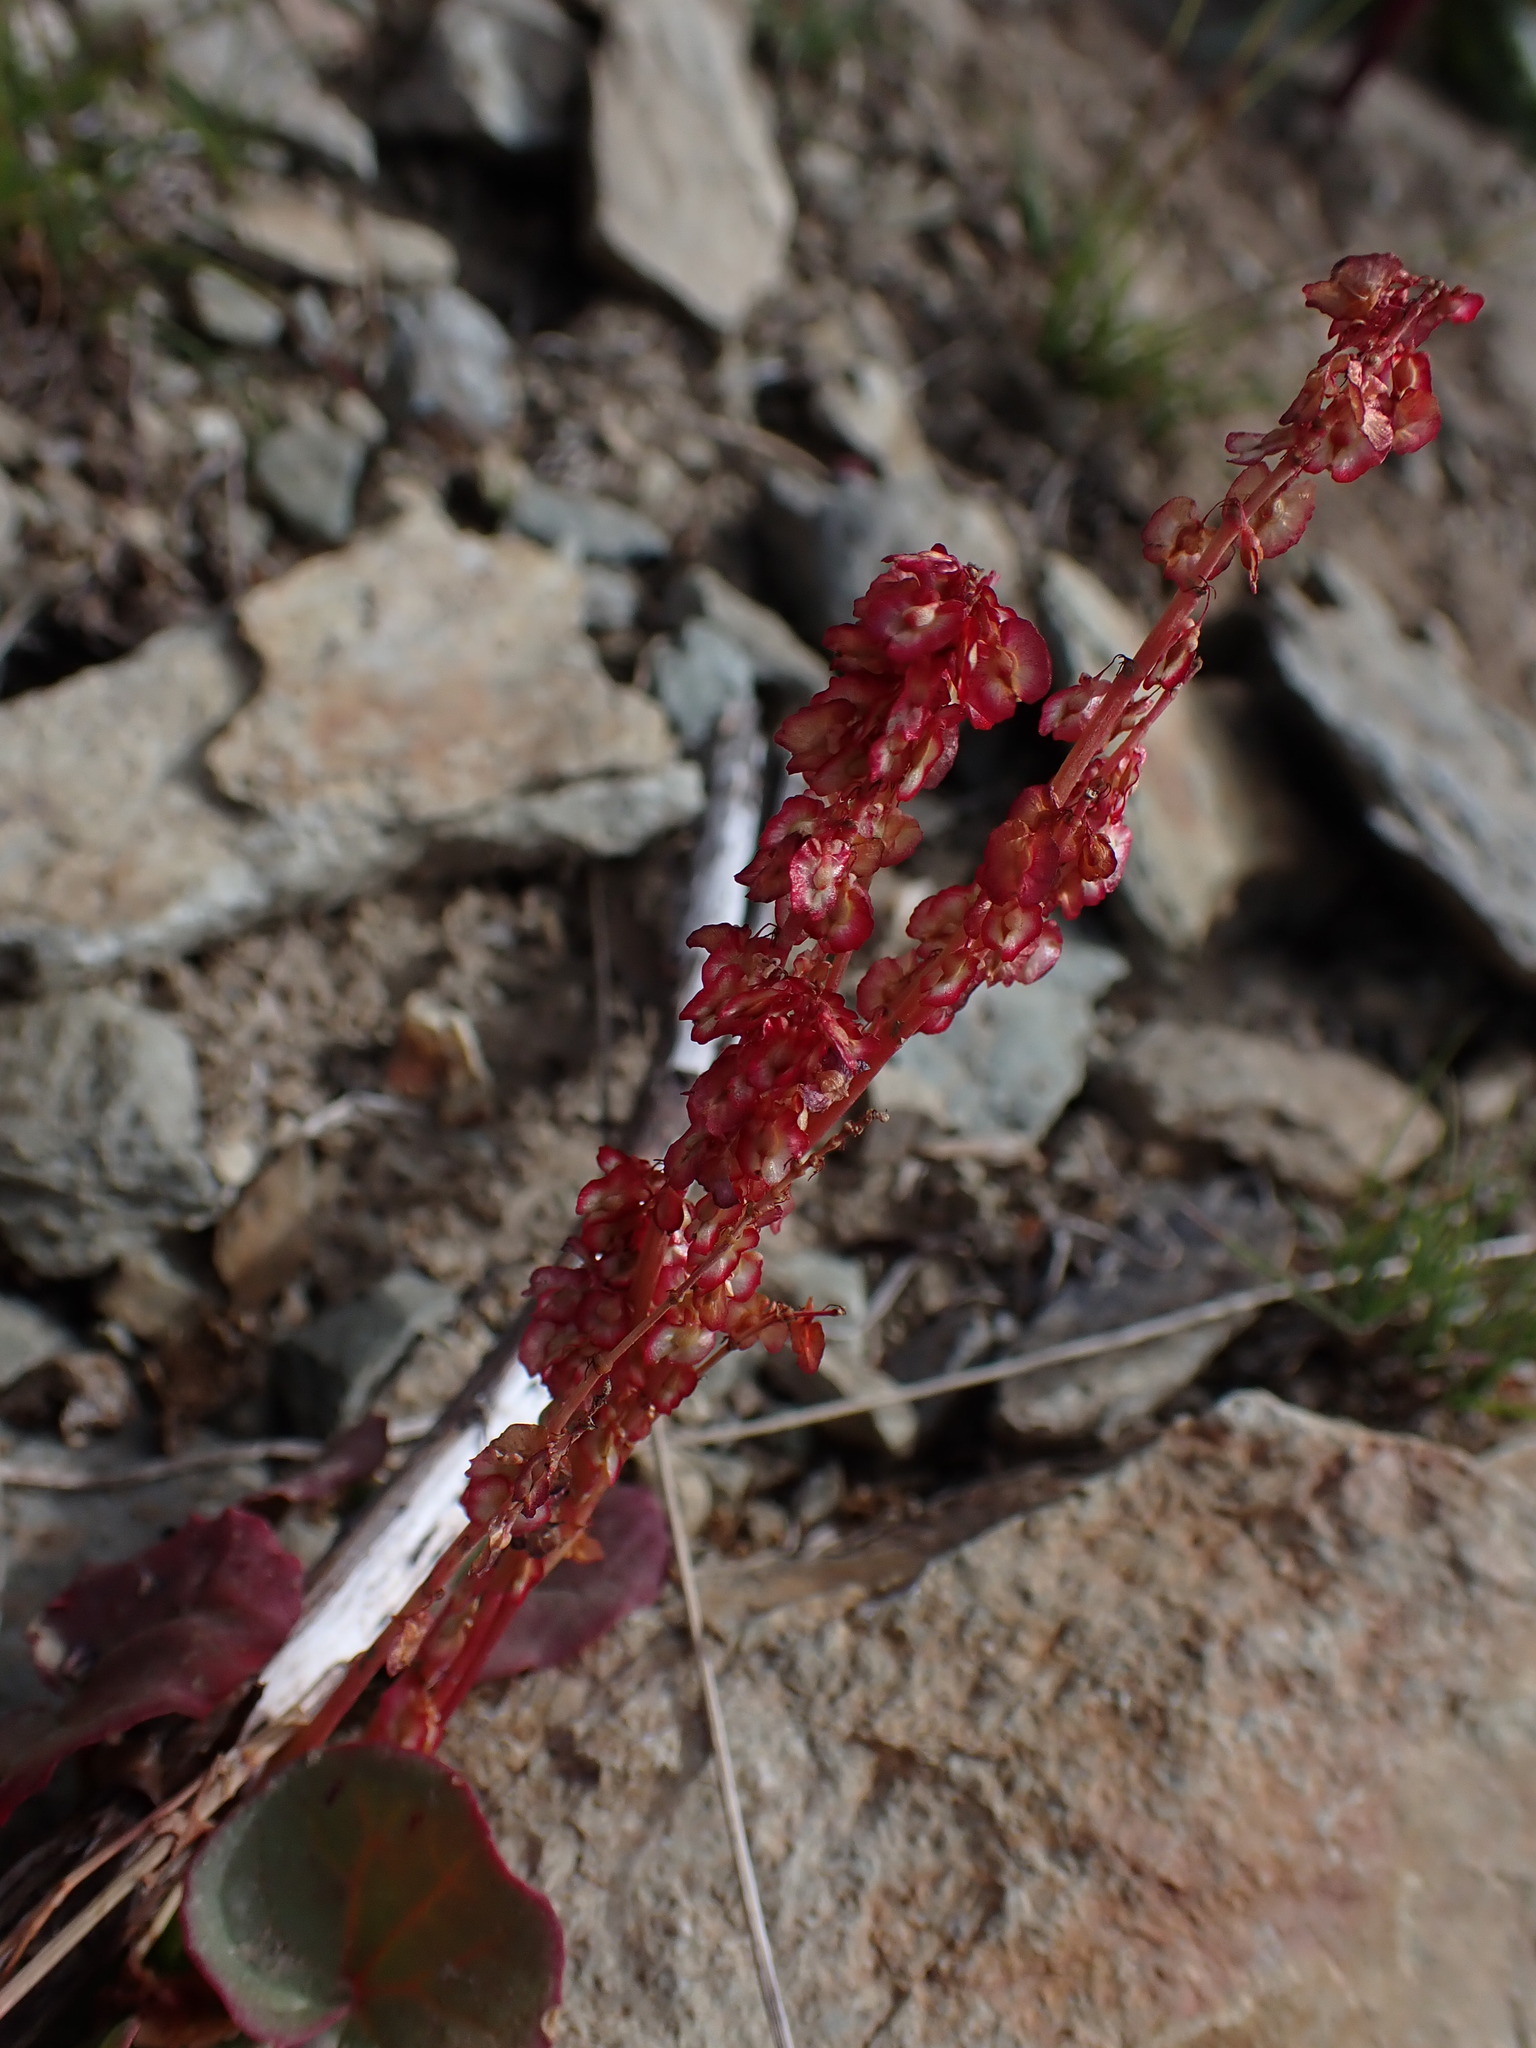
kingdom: Plantae
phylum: Tracheophyta
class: Magnoliopsida
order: Caryophyllales
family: Polygonaceae
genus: Oxyria
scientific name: Oxyria digyna
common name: Alpine mountain-sorrel
